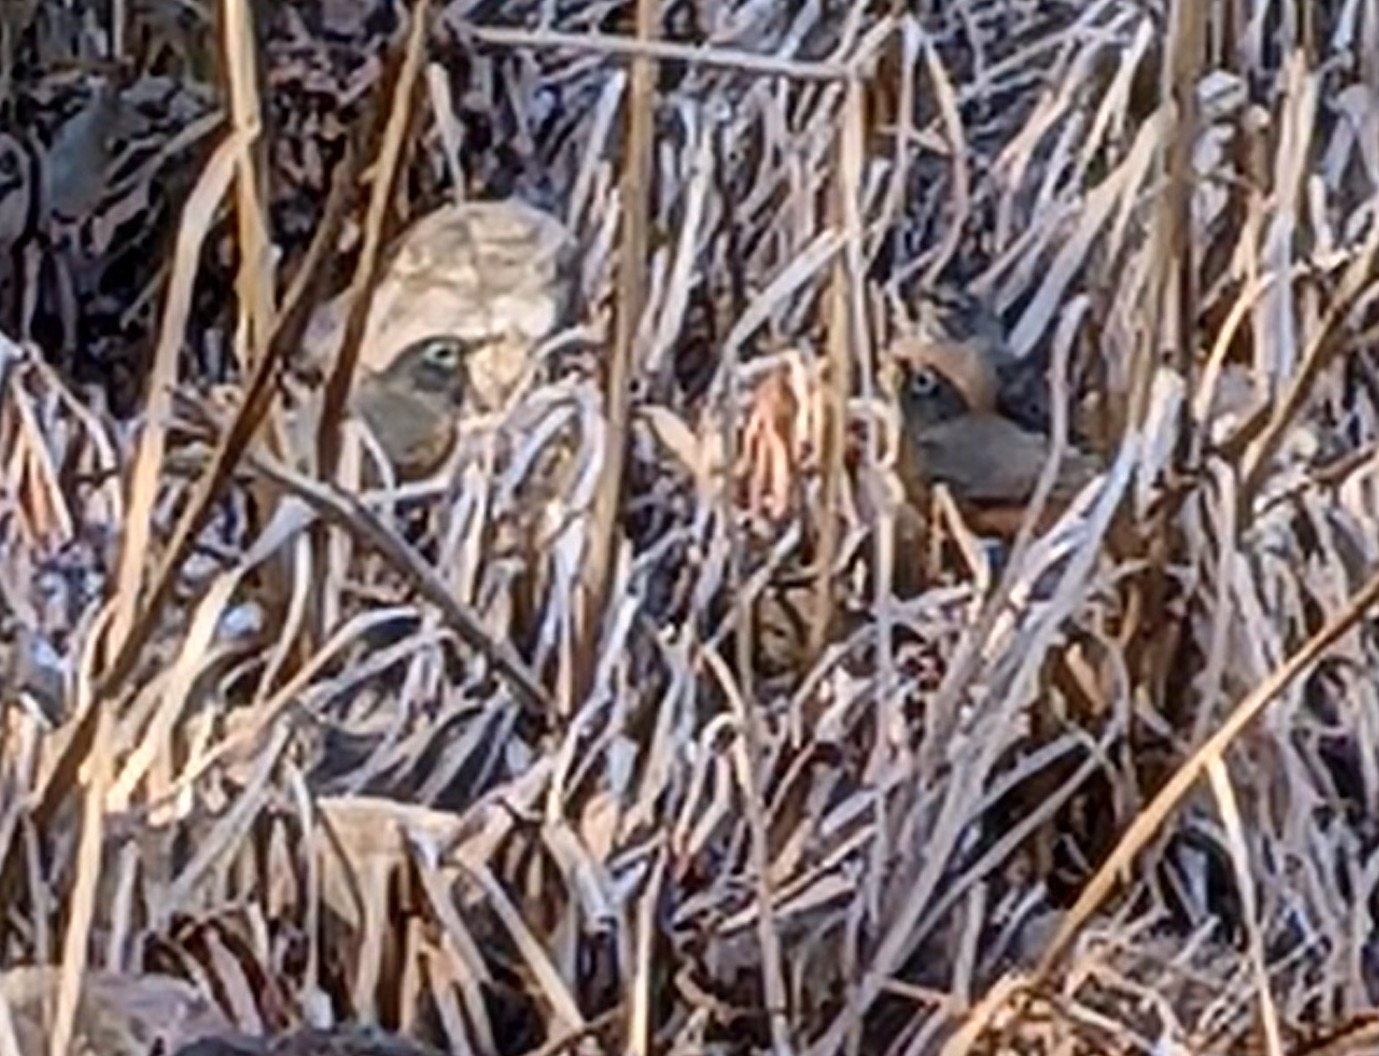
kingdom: Animalia
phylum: Chordata
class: Aves
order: Passeriformes
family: Turdidae
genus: Turdus
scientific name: Turdus migratorius
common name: American robin
